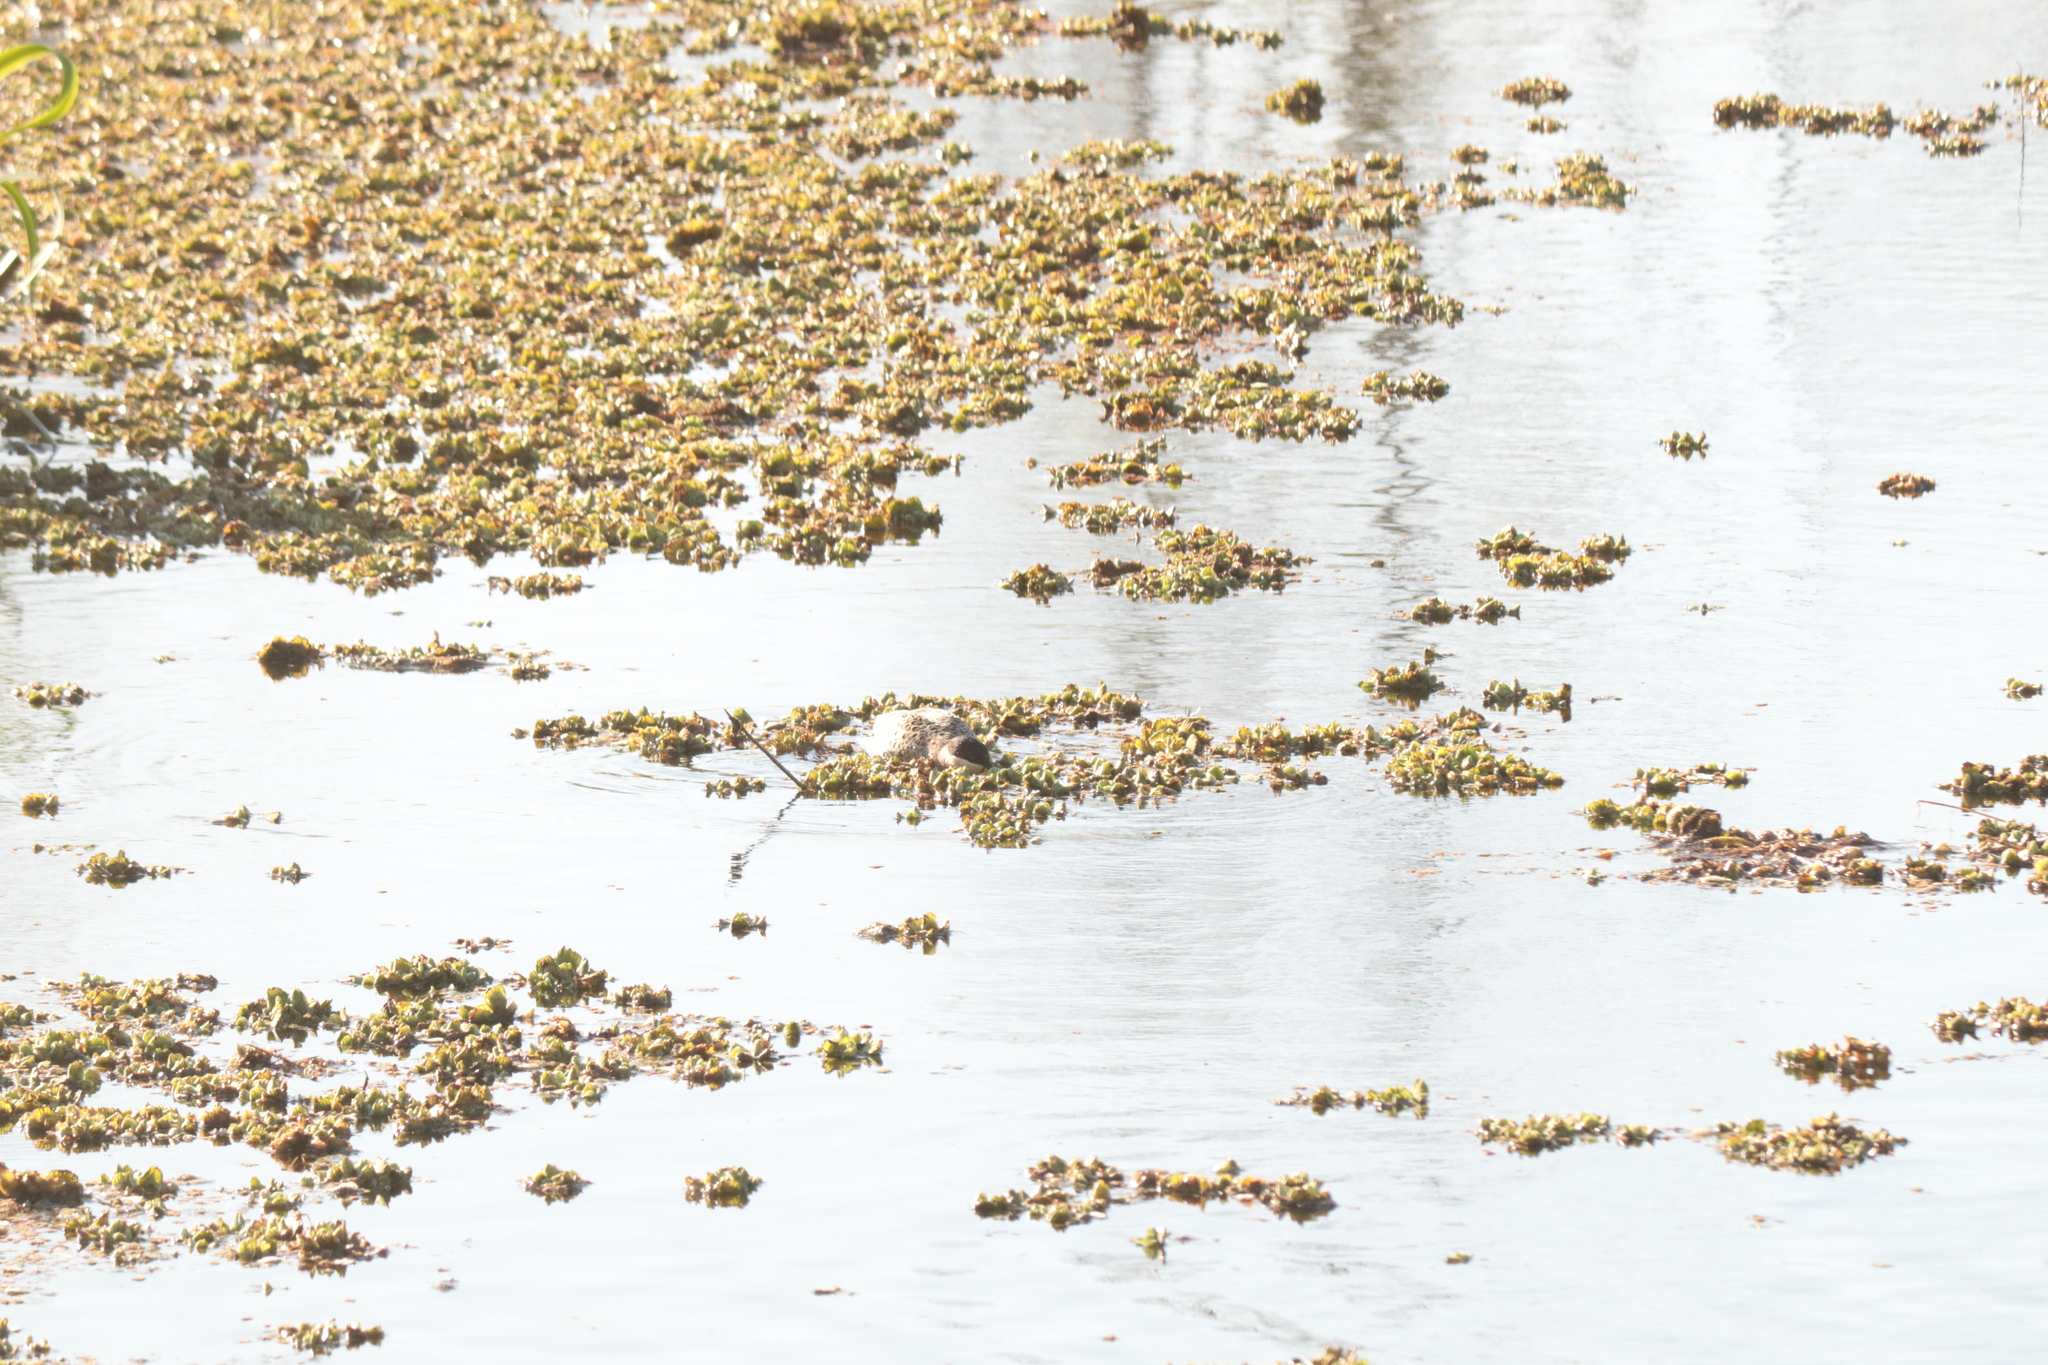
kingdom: Animalia
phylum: Chordata
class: Aves
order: Anseriformes
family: Anatidae
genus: Spatula
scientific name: Spatula versicolor
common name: Silver teal
